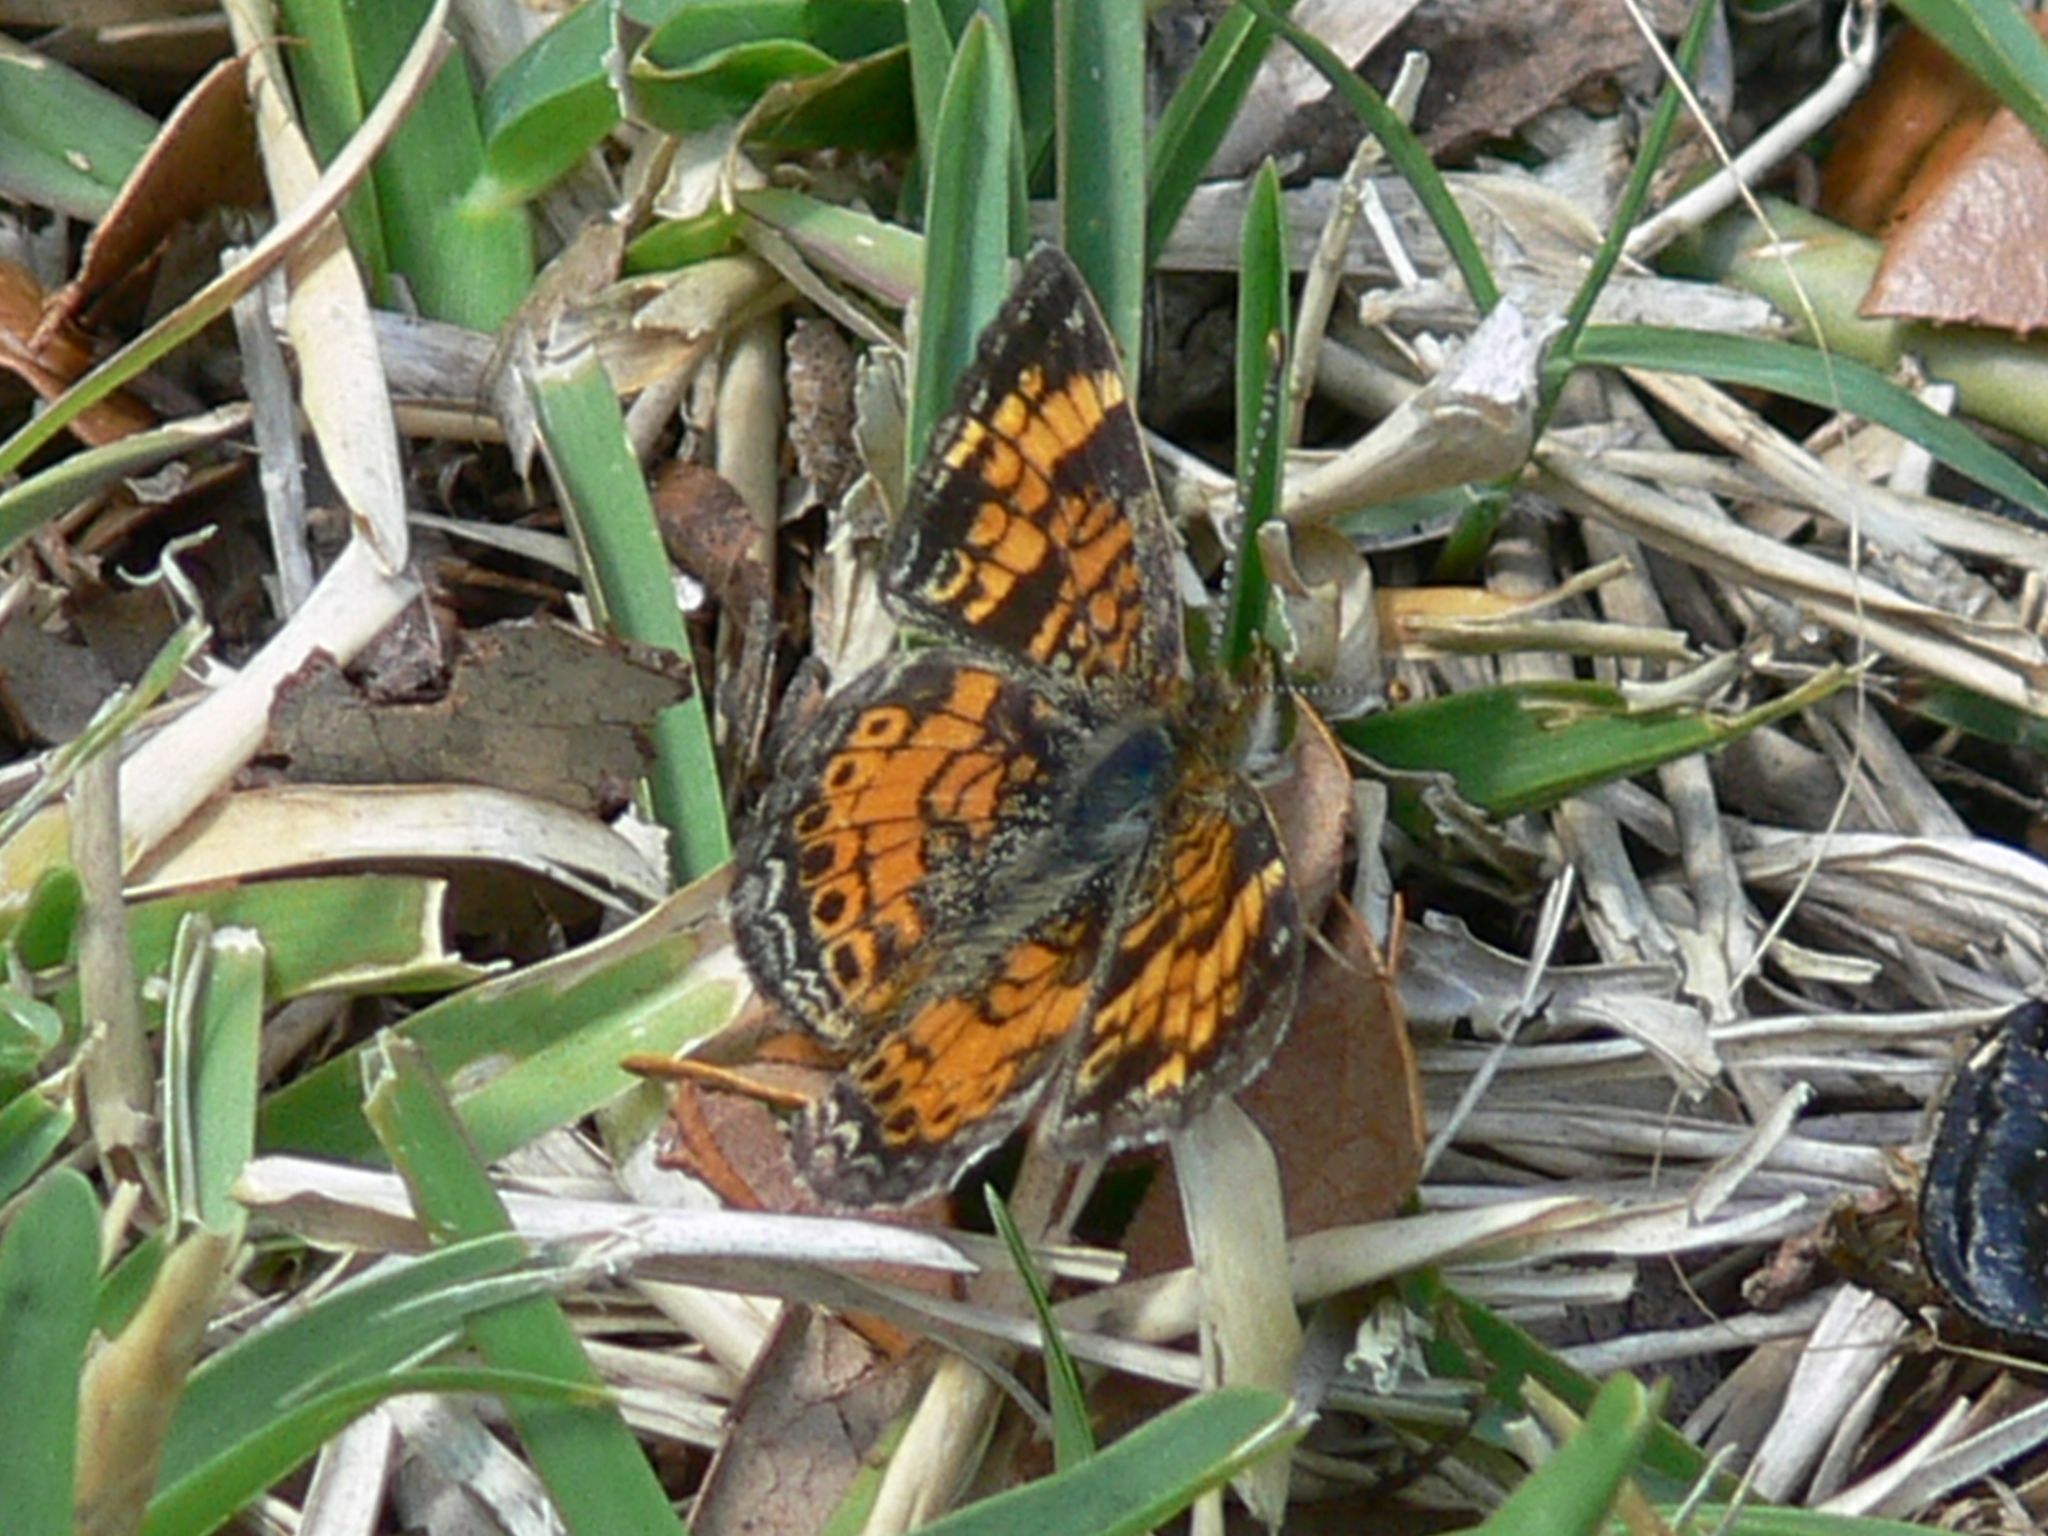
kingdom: Animalia
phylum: Arthropoda
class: Insecta
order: Lepidoptera
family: Nymphalidae
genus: Phyciodes
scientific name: Phyciodes tharos
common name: Pearl crescent
